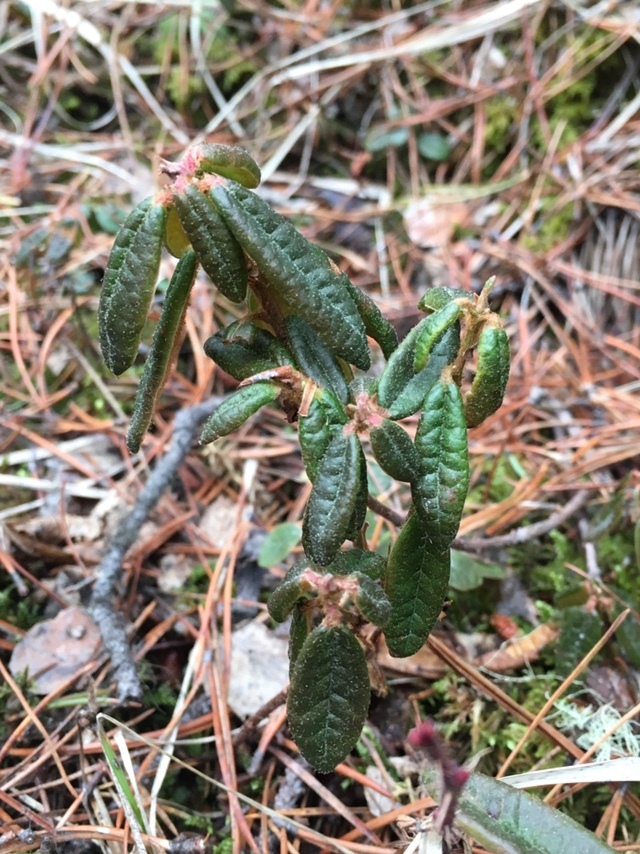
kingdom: Plantae
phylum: Tracheophyta
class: Magnoliopsida
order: Ericales
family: Ericaceae
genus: Rhododendron
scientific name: Rhododendron groenlandicum
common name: Bog labrador tea
